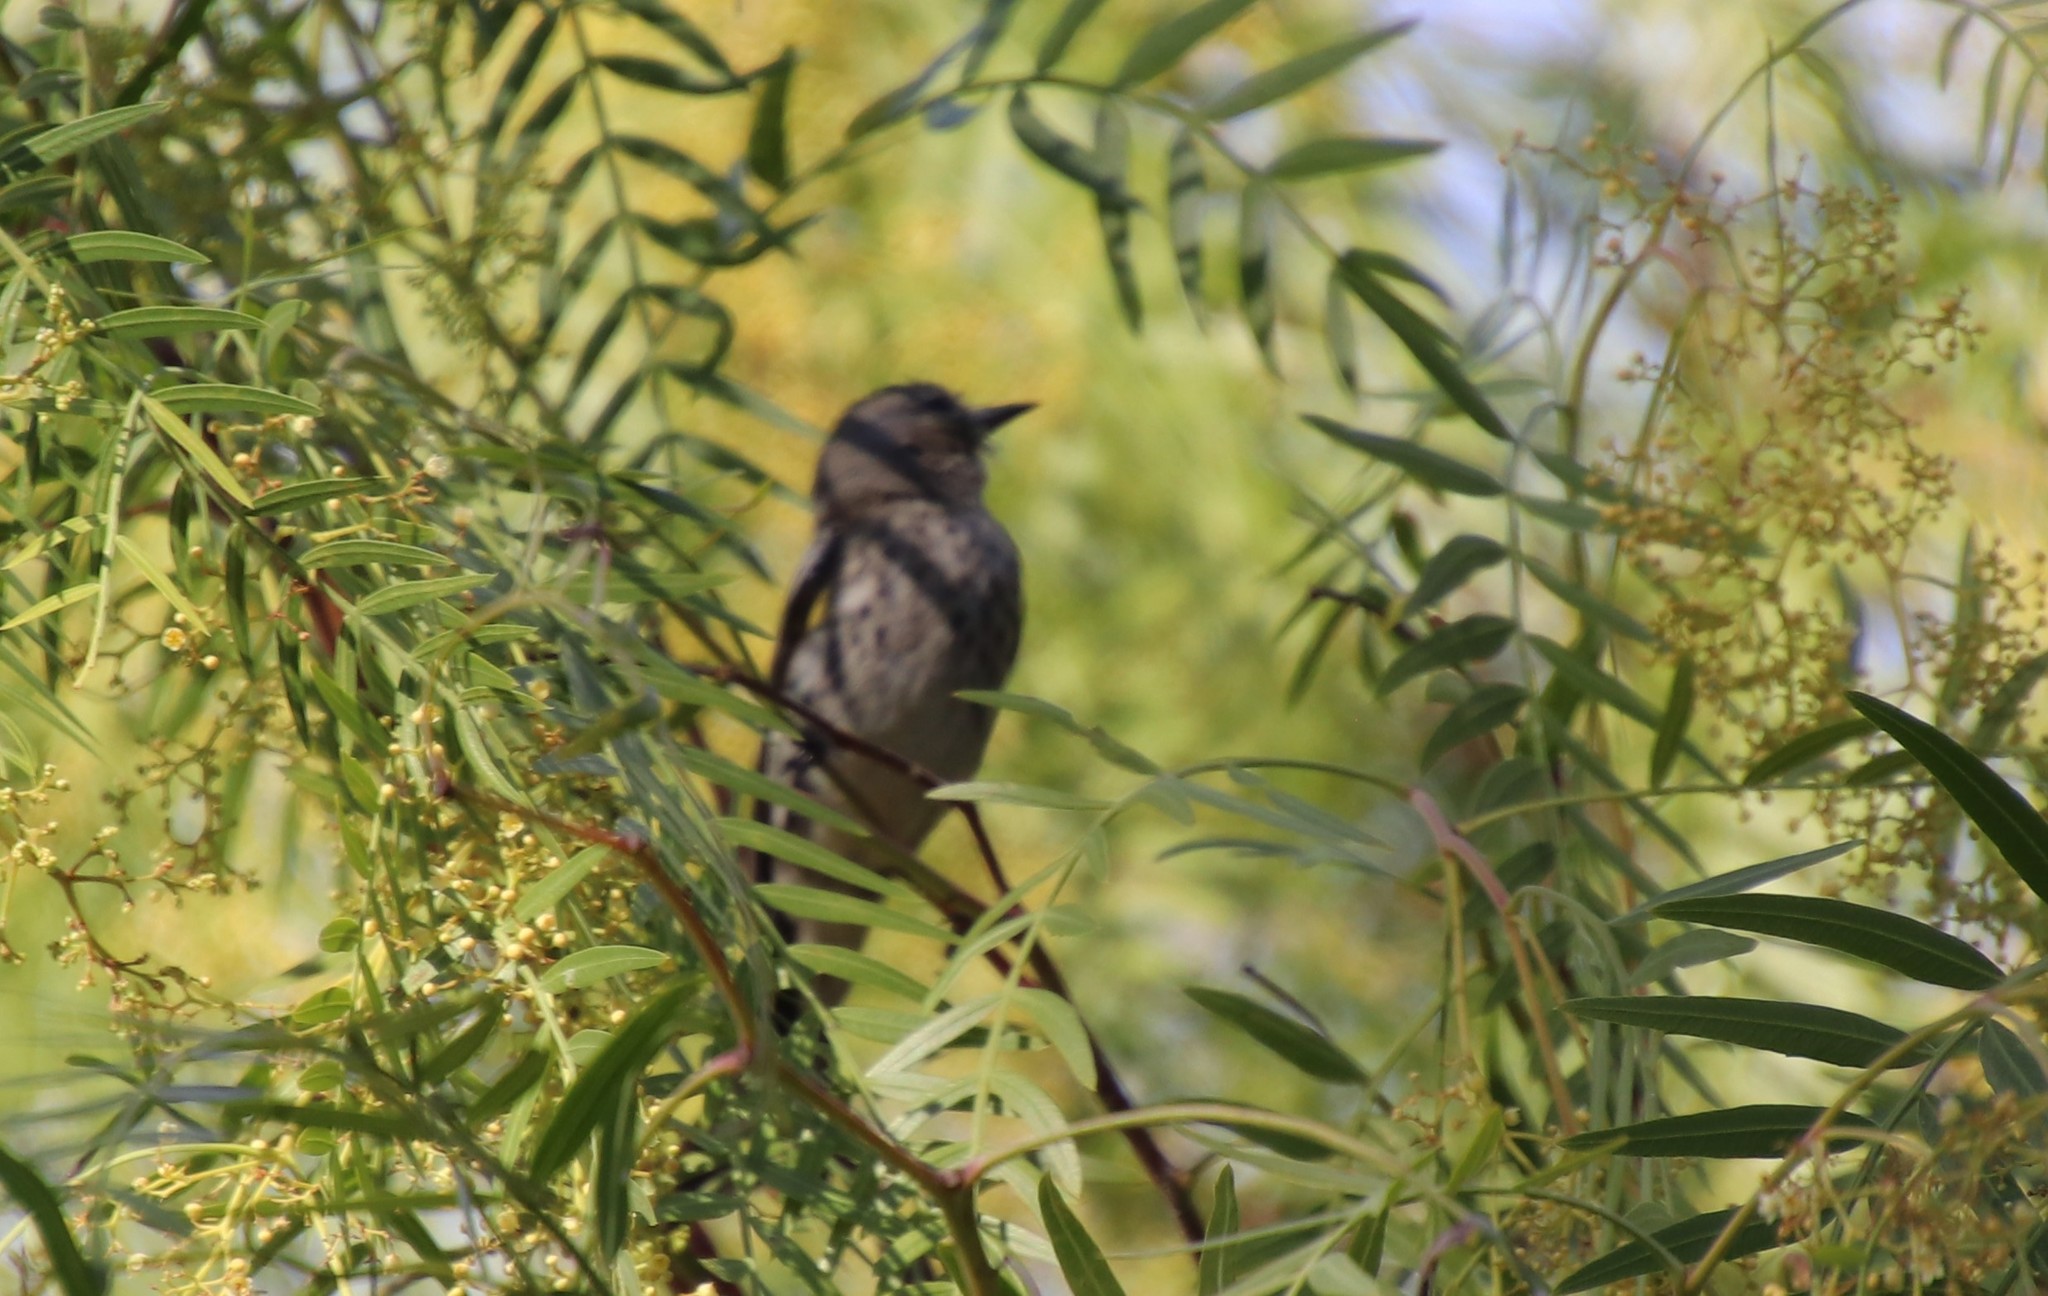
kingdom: Animalia
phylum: Chordata
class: Aves
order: Passeriformes
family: Parulidae
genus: Setophaga
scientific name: Setophaga coronata
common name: Myrtle warbler
